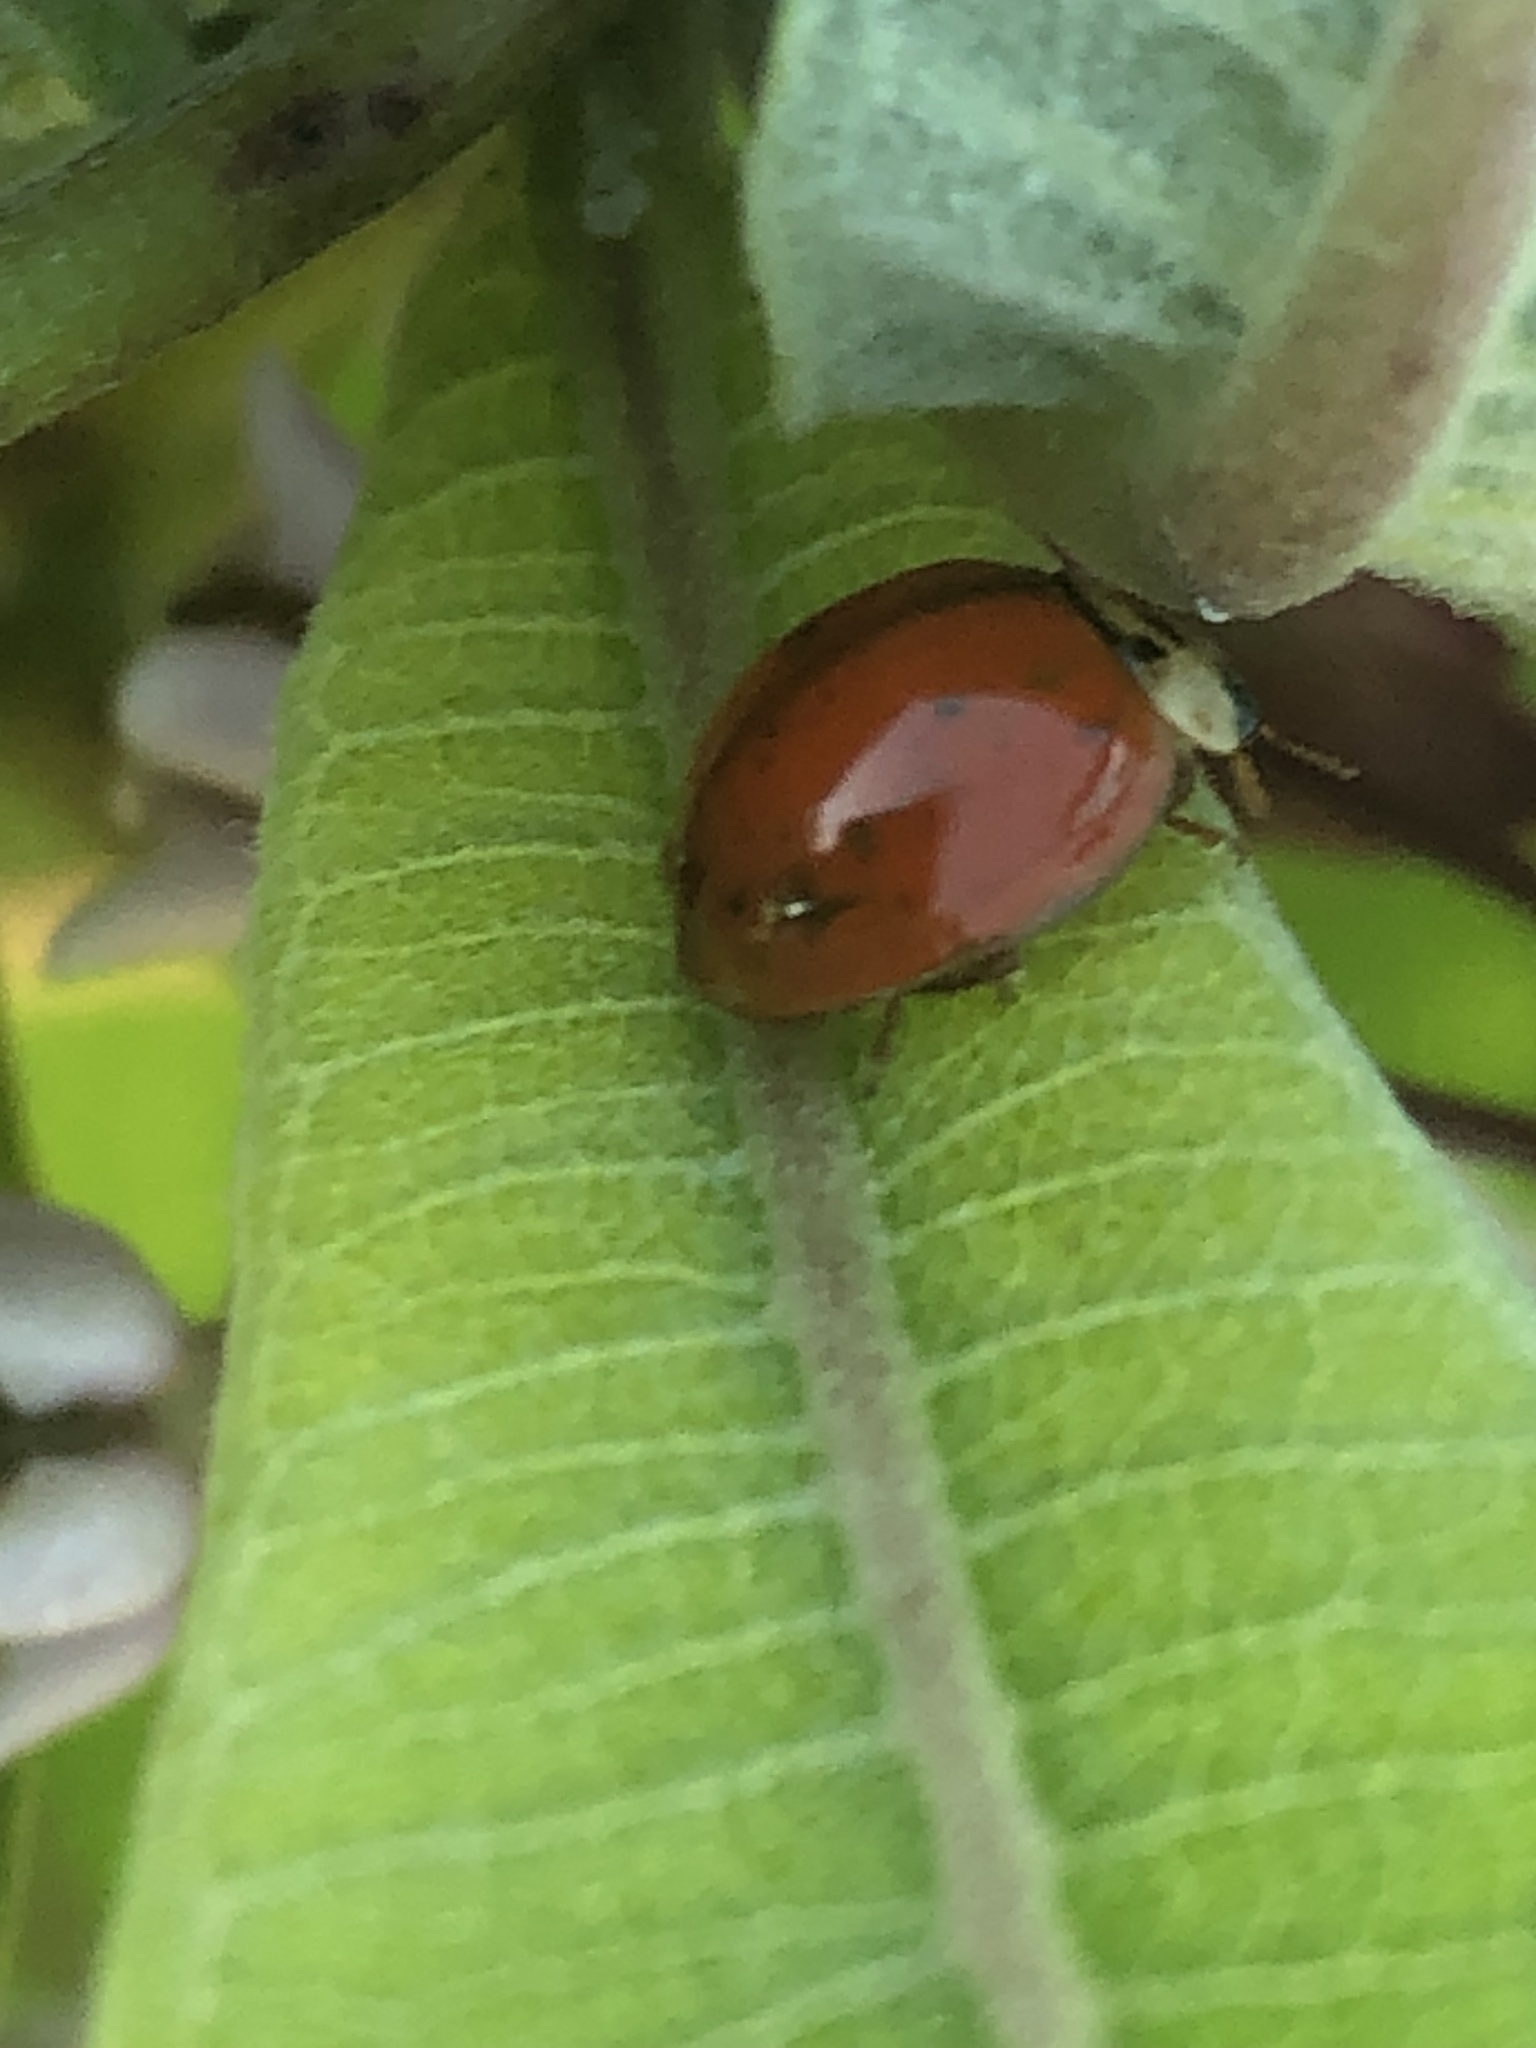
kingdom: Animalia
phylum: Arthropoda
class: Insecta
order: Coleoptera
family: Coccinellidae
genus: Harmonia
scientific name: Harmonia axyridis
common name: Harlequin ladybird
